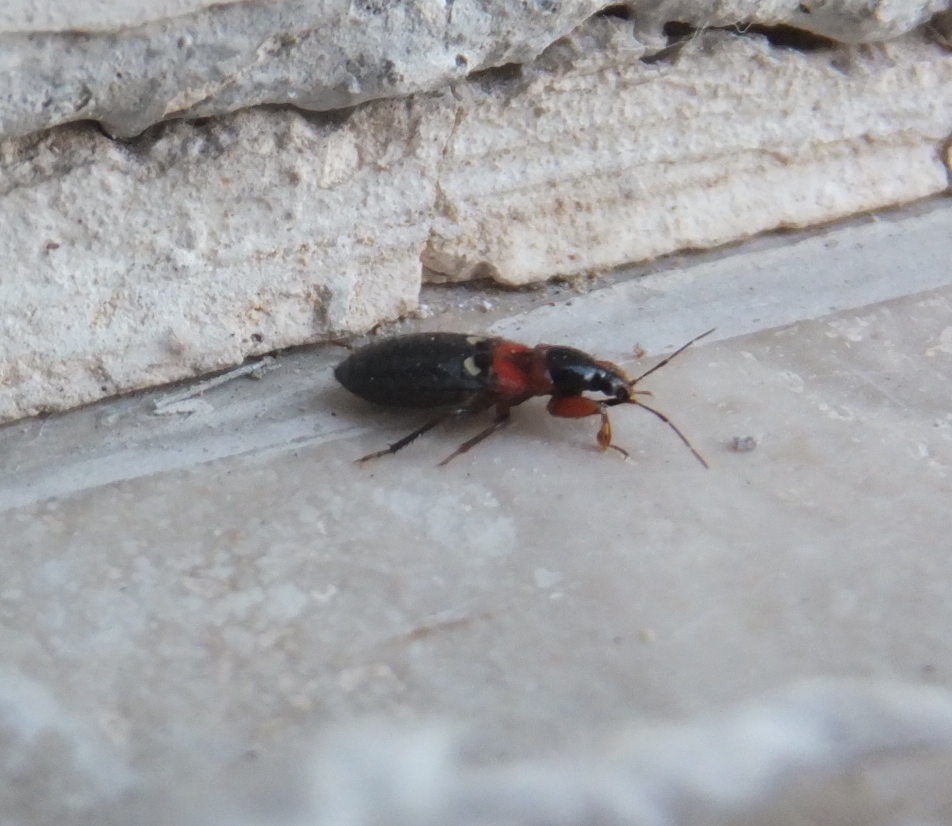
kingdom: Animalia
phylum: Arthropoda
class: Insecta
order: Hemiptera
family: Nabidae
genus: Prostemma
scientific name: Prostemma sanguineum
